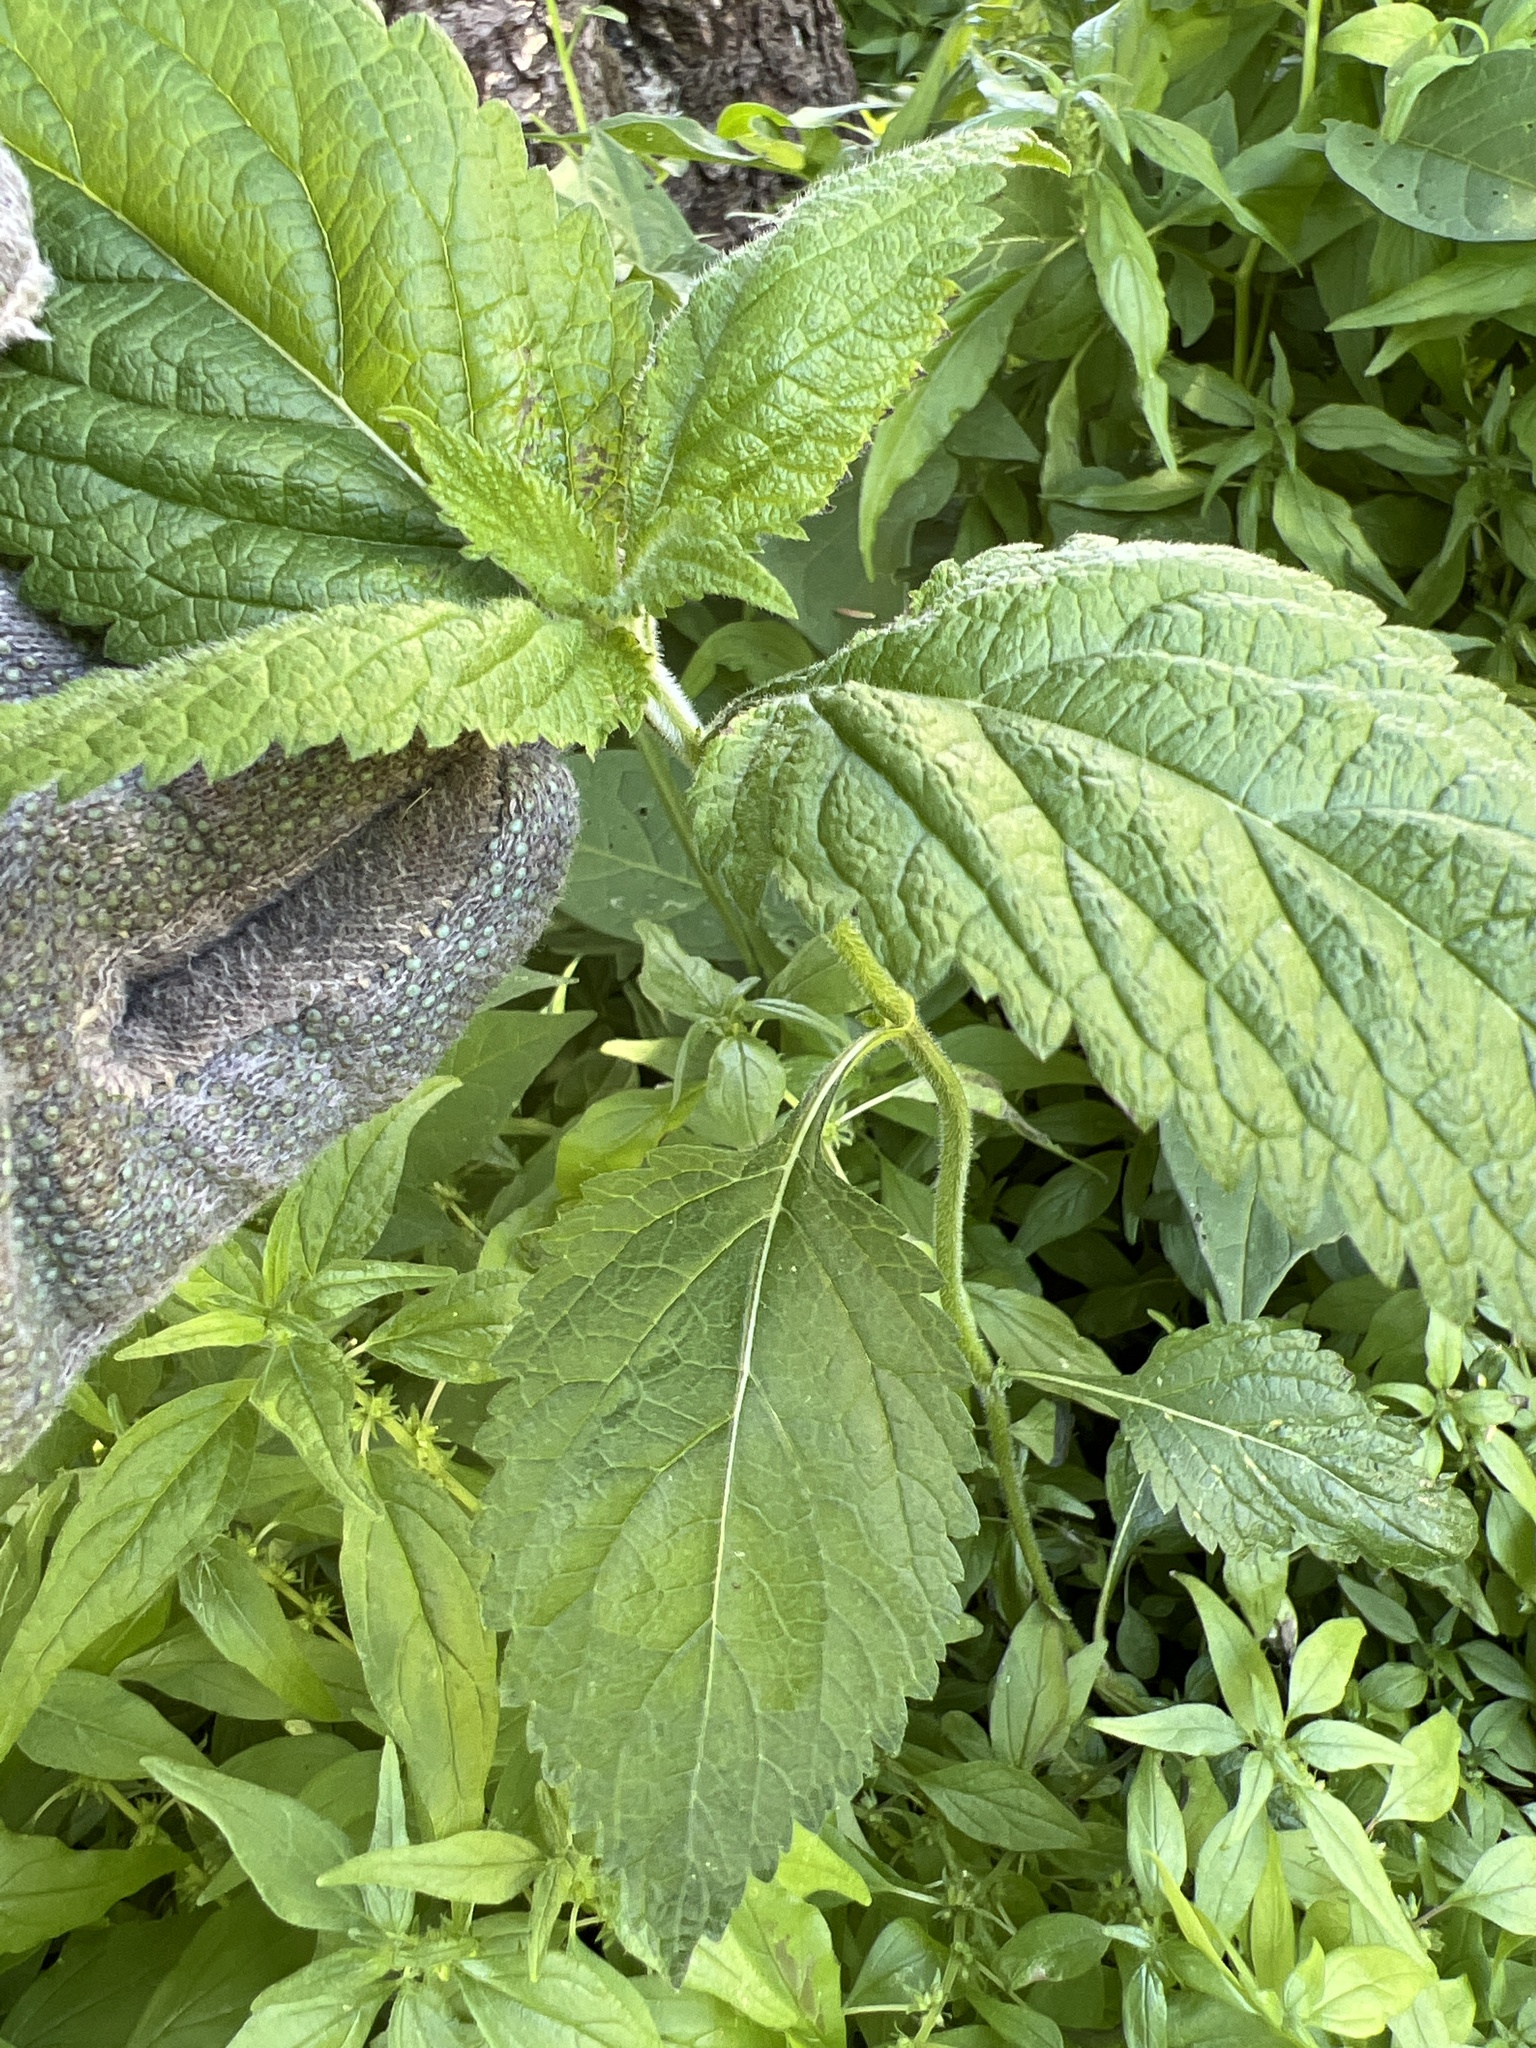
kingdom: Plantae
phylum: Tracheophyta
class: Magnoliopsida
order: Lamiales
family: Verbenaceae
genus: Verbena
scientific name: Verbena urticifolia
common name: Nettle-leaved vervain
